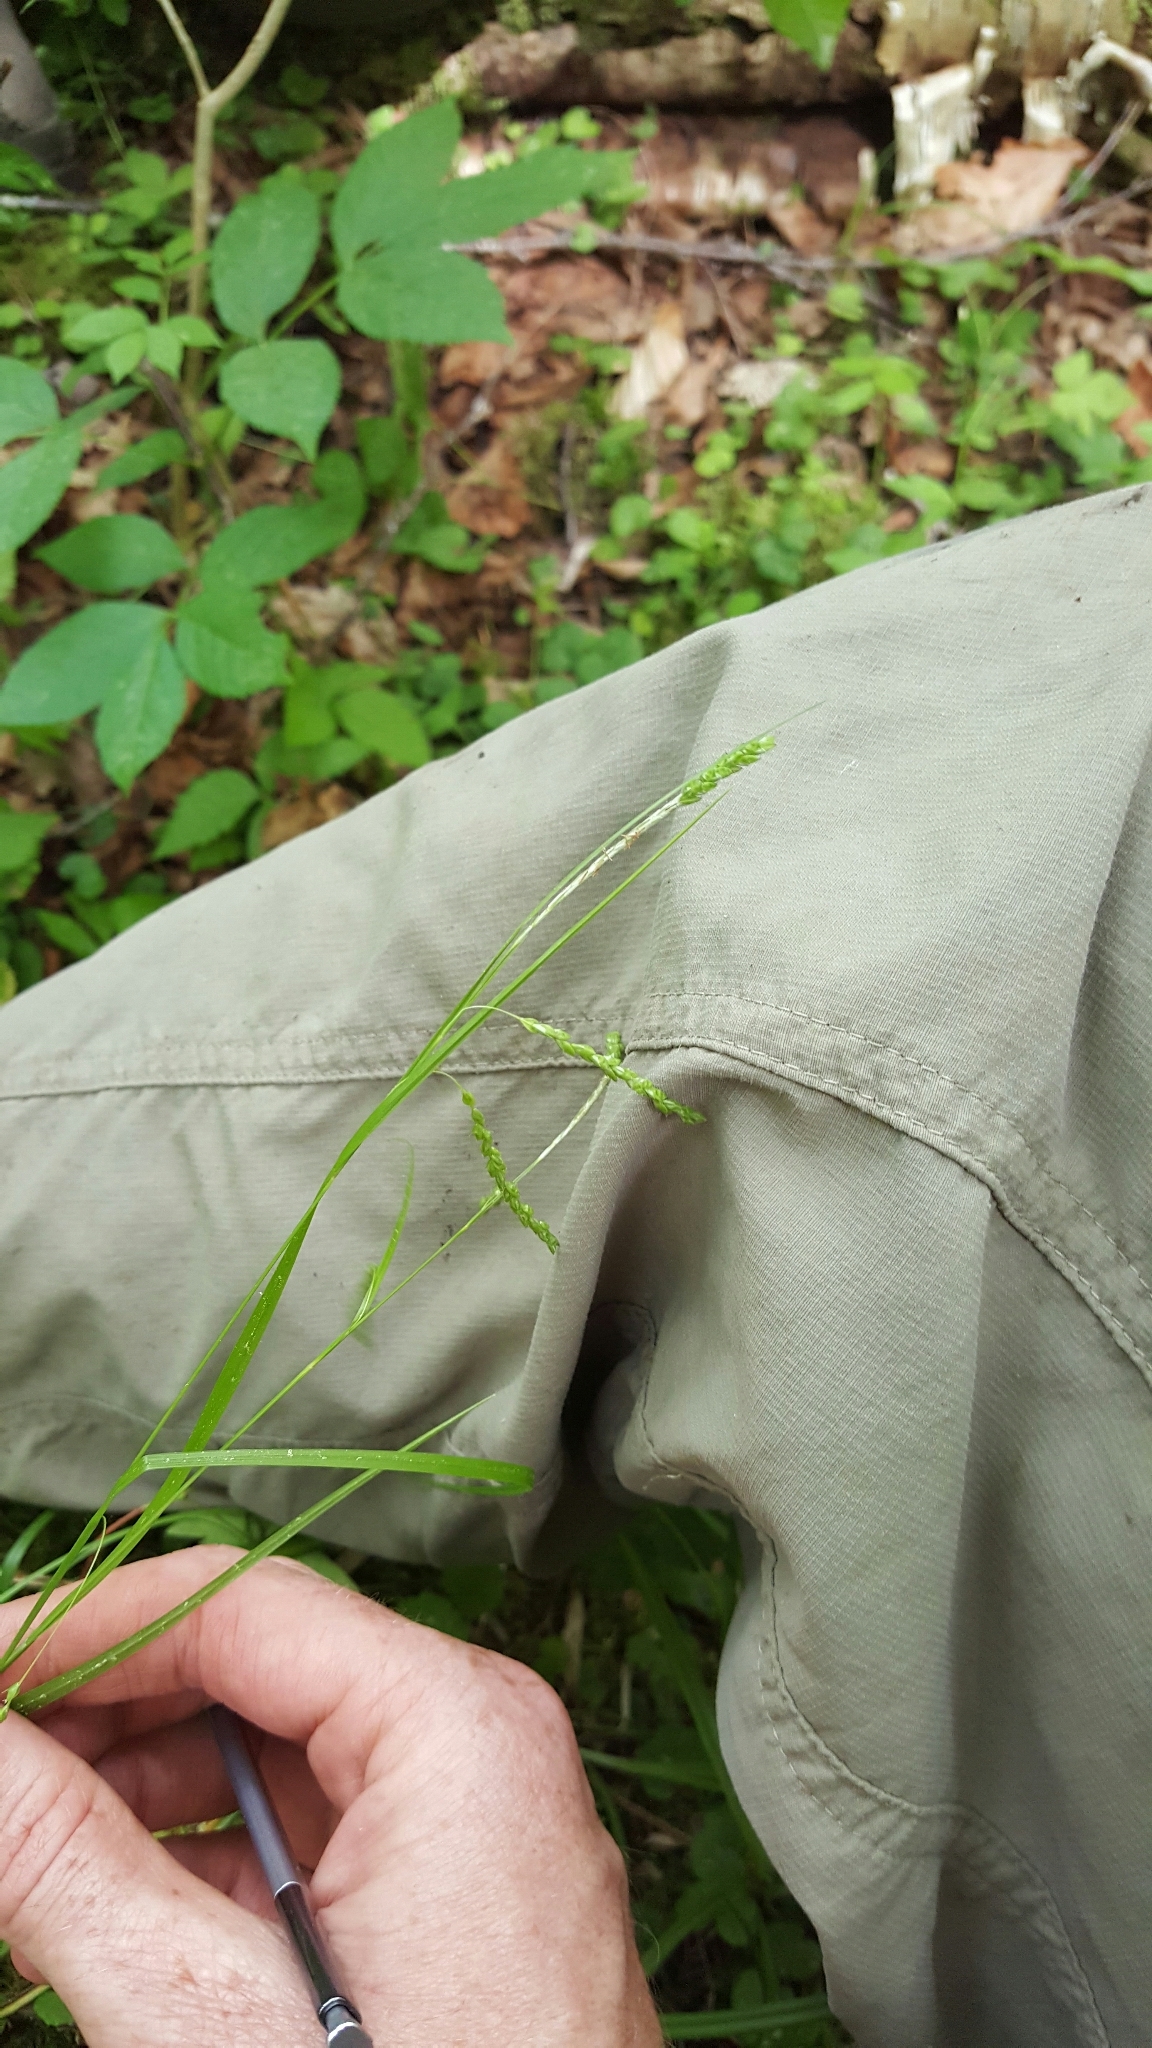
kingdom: Plantae
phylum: Tracheophyta
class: Liliopsida
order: Poales
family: Cyperaceae
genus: Carex
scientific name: Carex gracillima
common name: Graceful sedge
